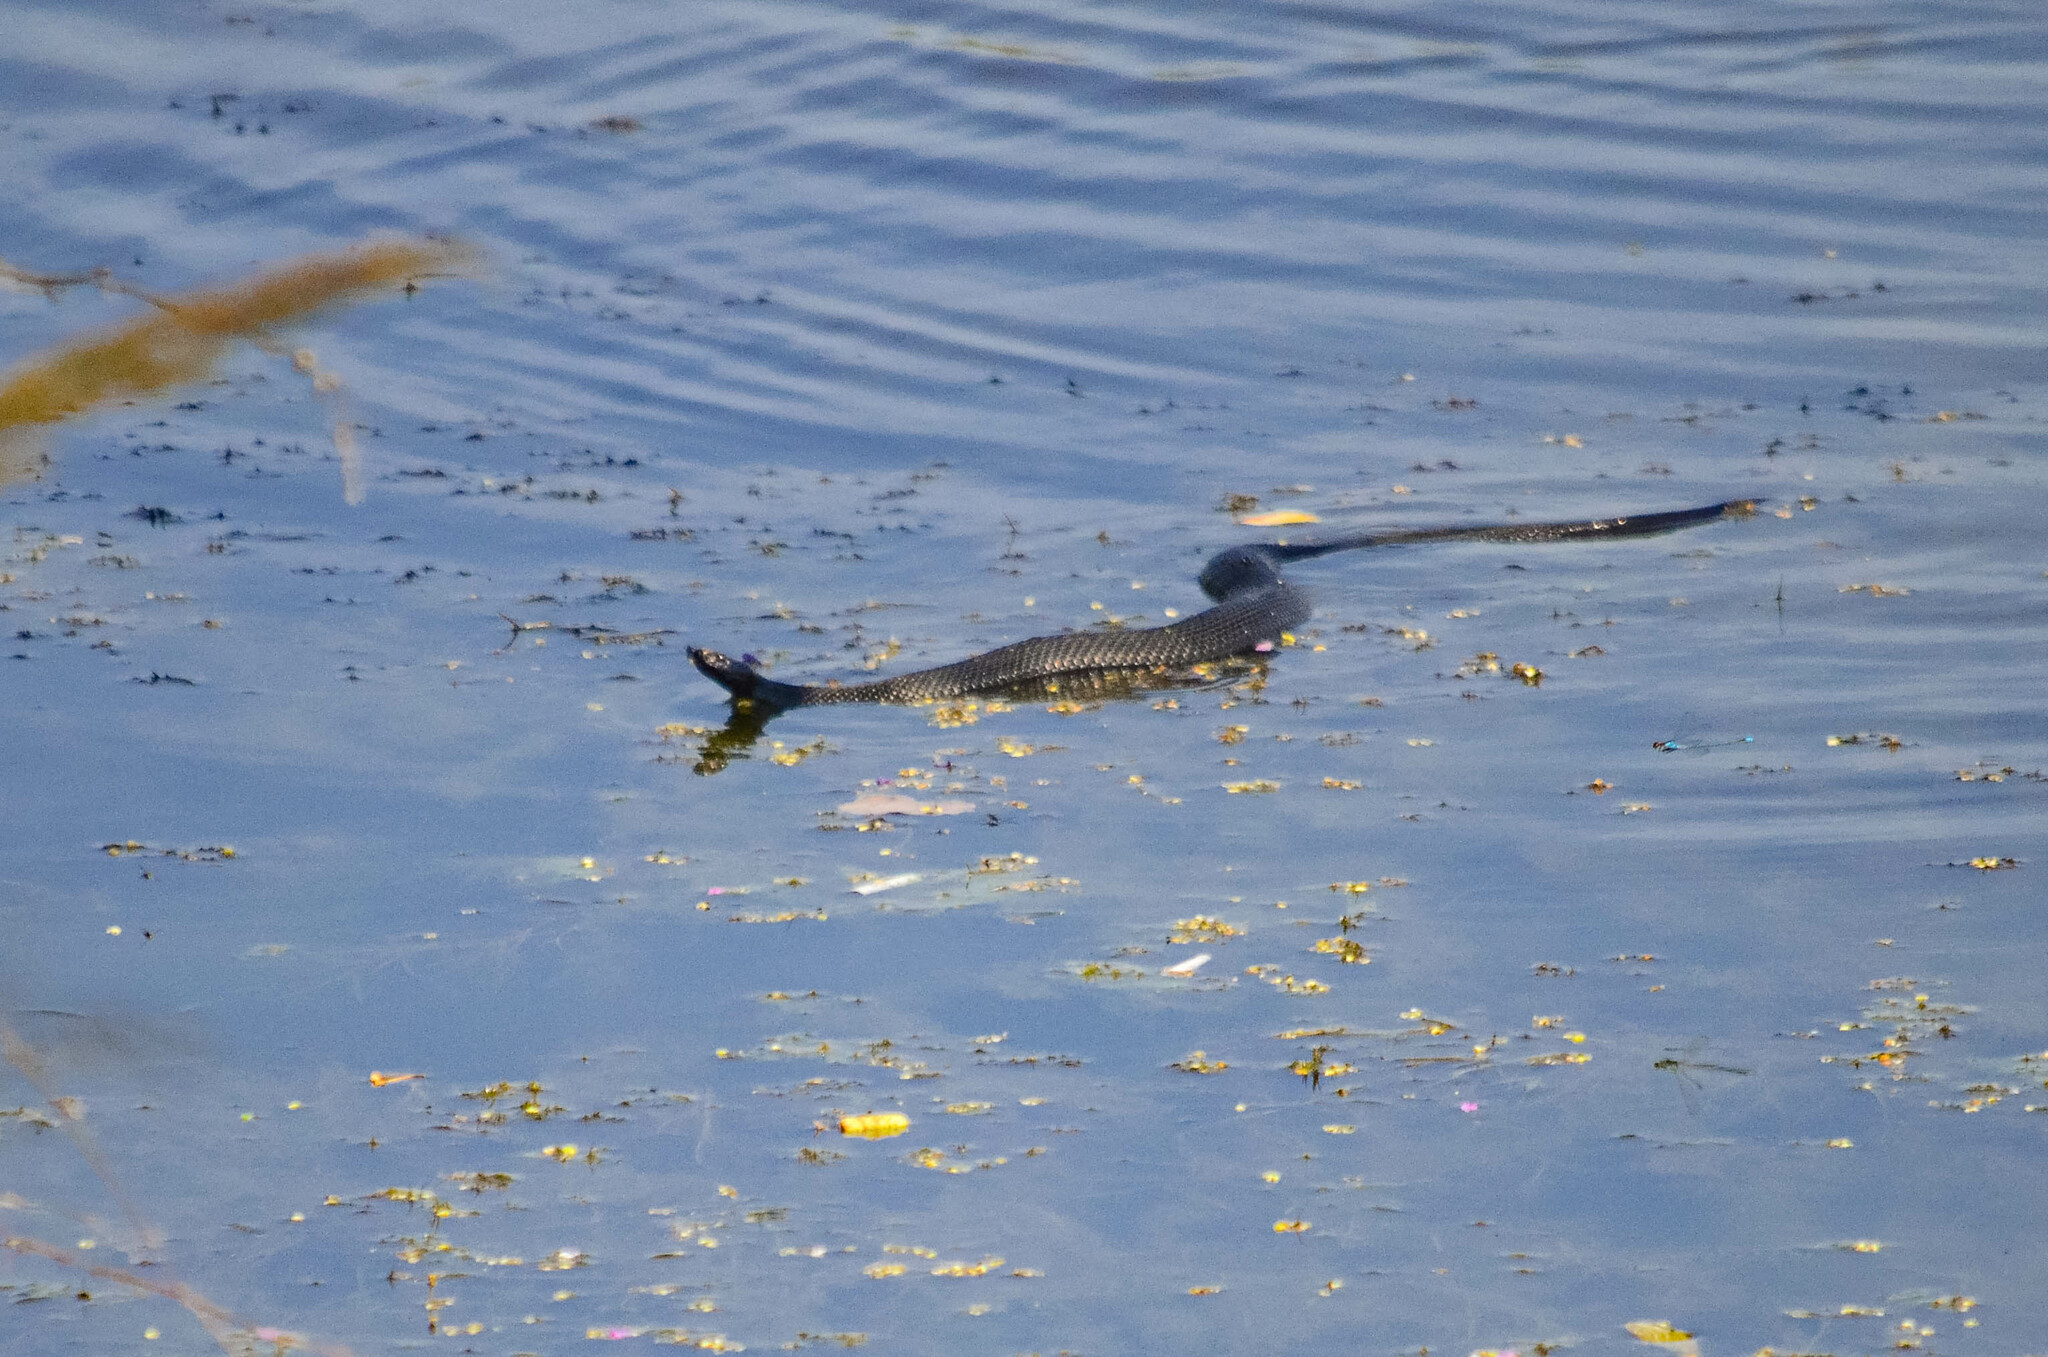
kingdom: Animalia
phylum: Chordata
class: Squamata
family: Viperidae
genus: Vipera
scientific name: Vipera berus
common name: Adder
